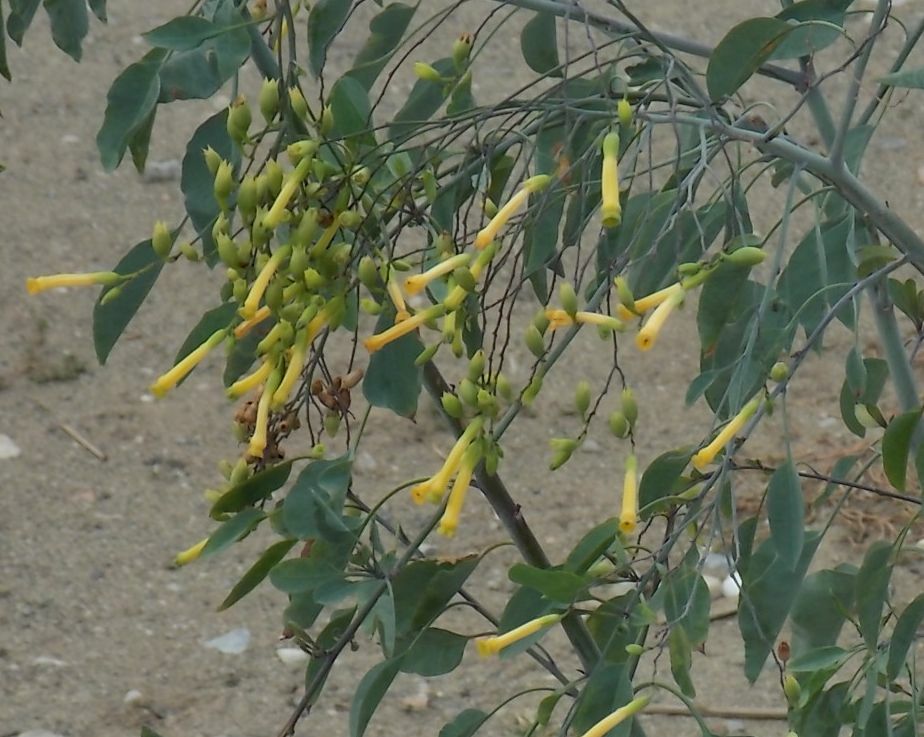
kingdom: Plantae
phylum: Tracheophyta
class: Magnoliopsida
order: Solanales
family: Solanaceae
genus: Nicotiana
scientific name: Nicotiana glauca
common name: Tree tobacco
